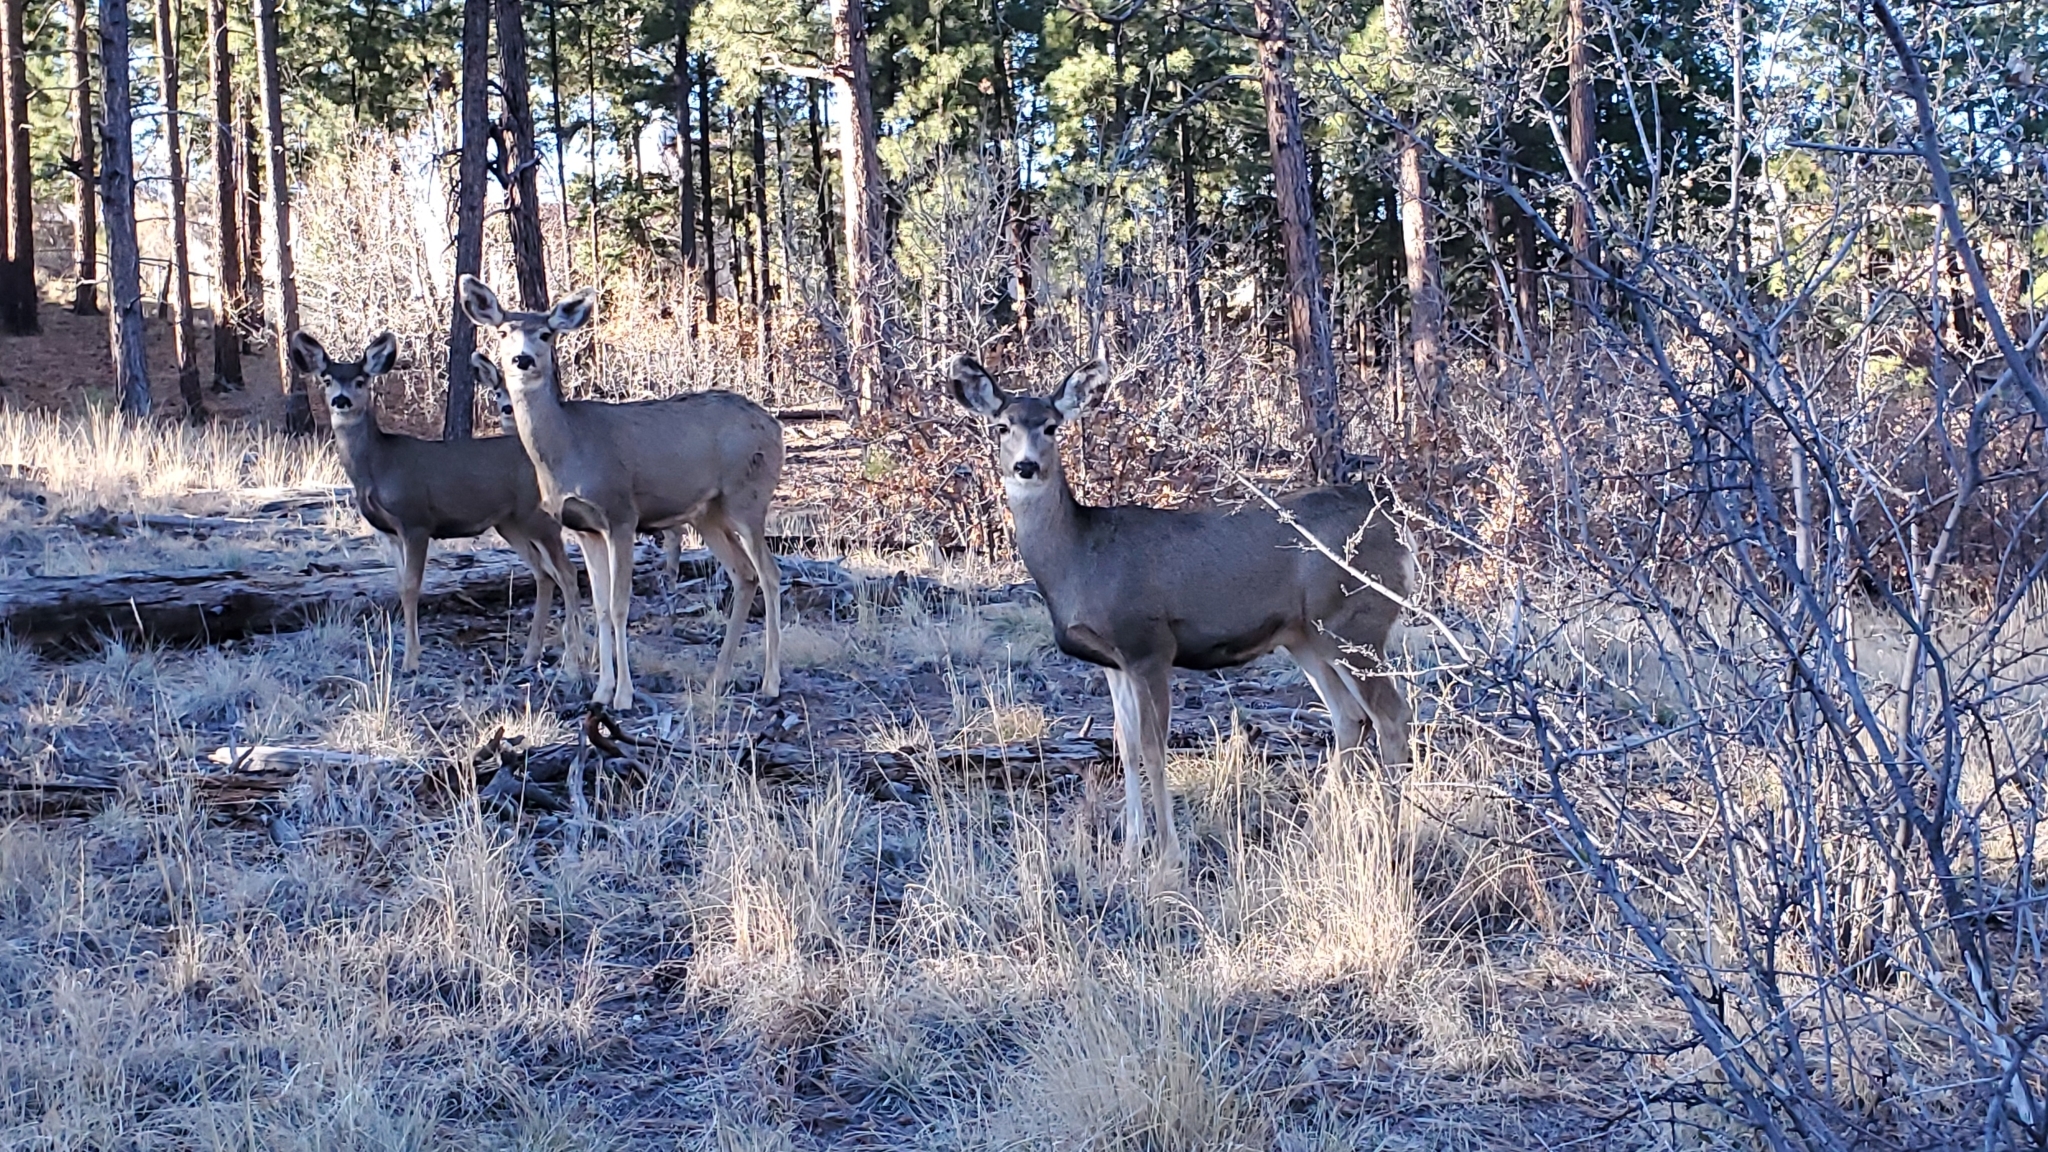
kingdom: Animalia
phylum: Chordata
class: Mammalia
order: Artiodactyla
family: Cervidae
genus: Odocoileus
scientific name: Odocoileus hemionus
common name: Mule deer
